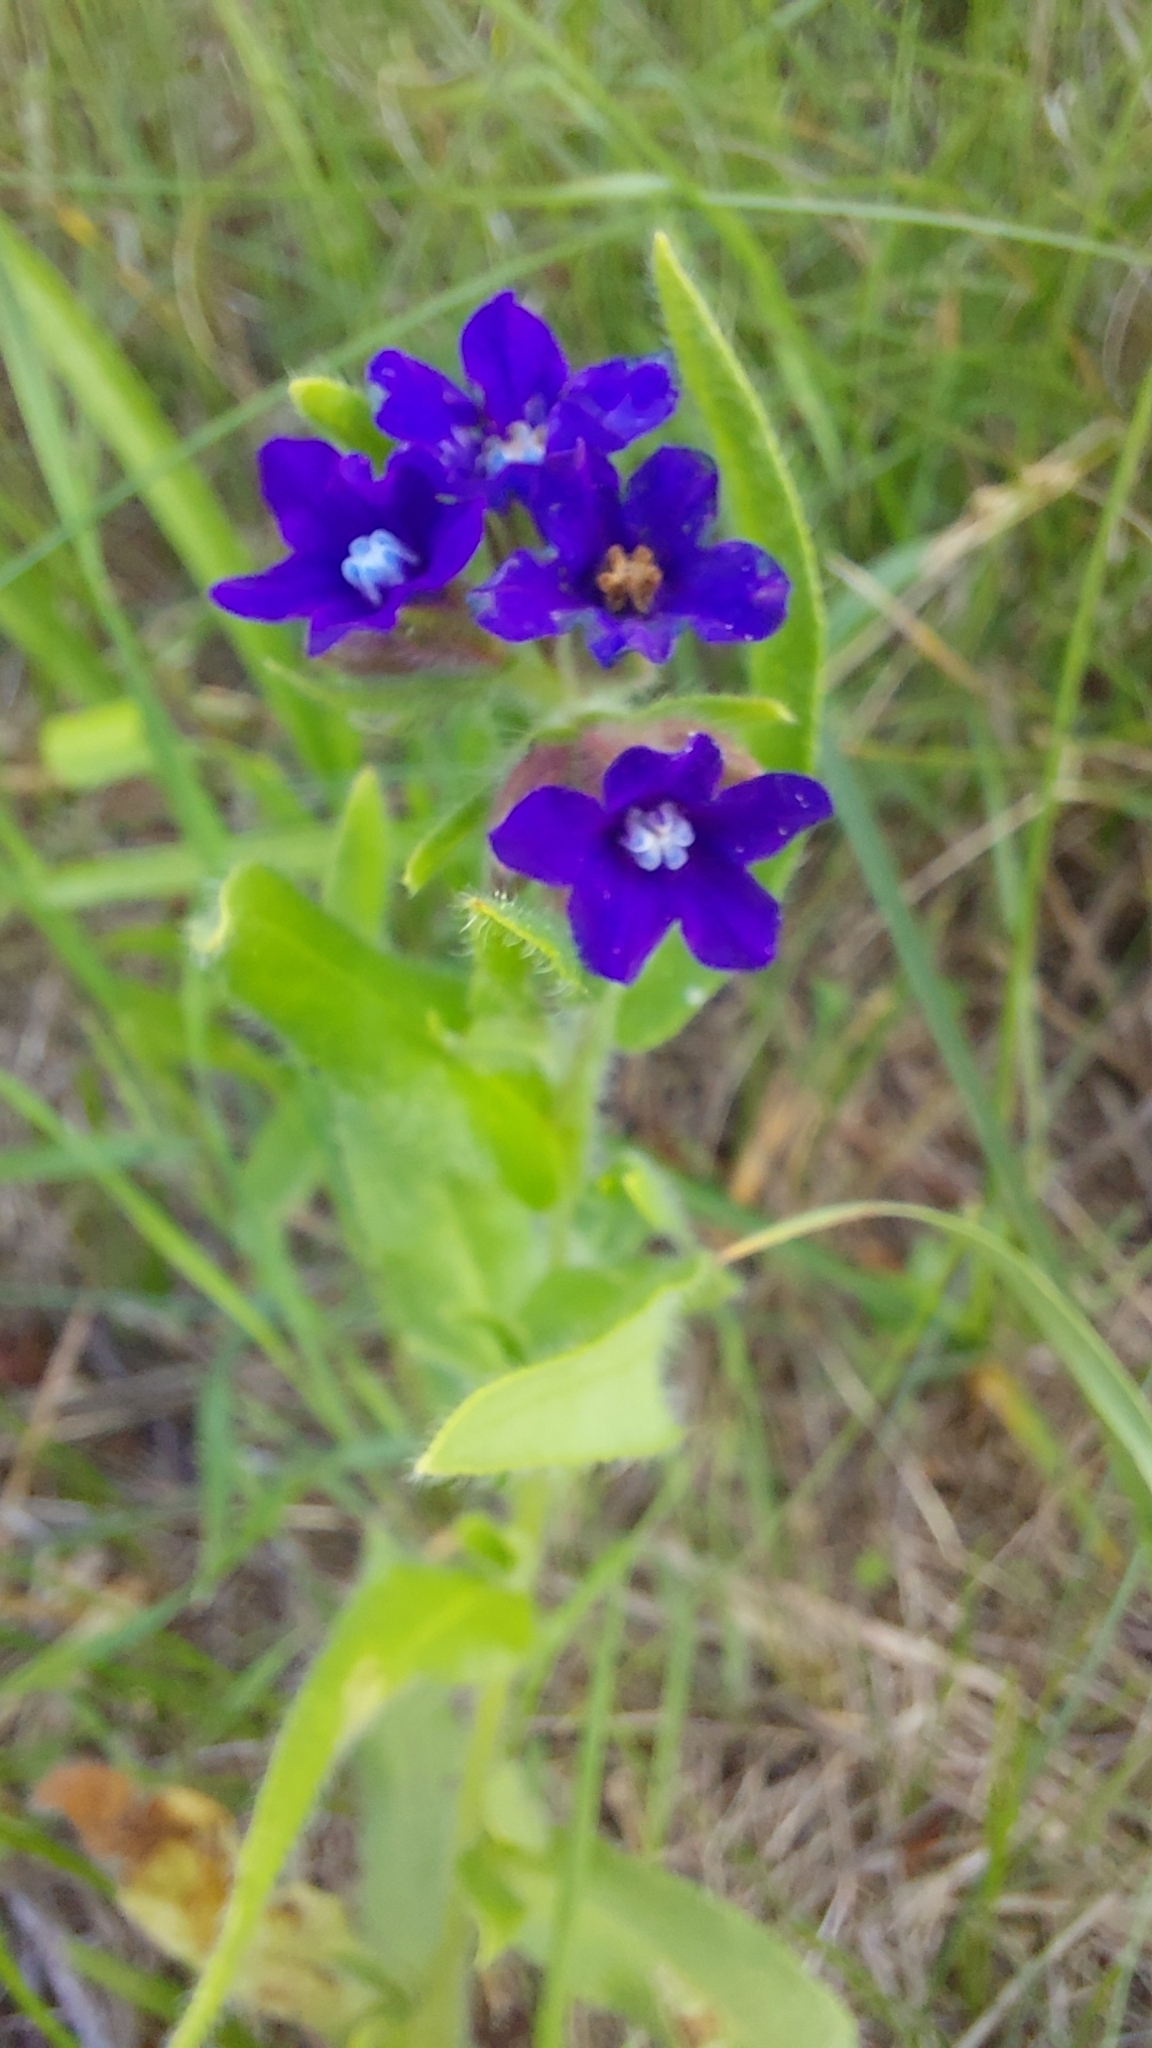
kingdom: Plantae
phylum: Tracheophyta
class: Magnoliopsida
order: Boraginales
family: Boraginaceae
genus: Anchusa
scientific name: Anchusa officinalis
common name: Alkanet
